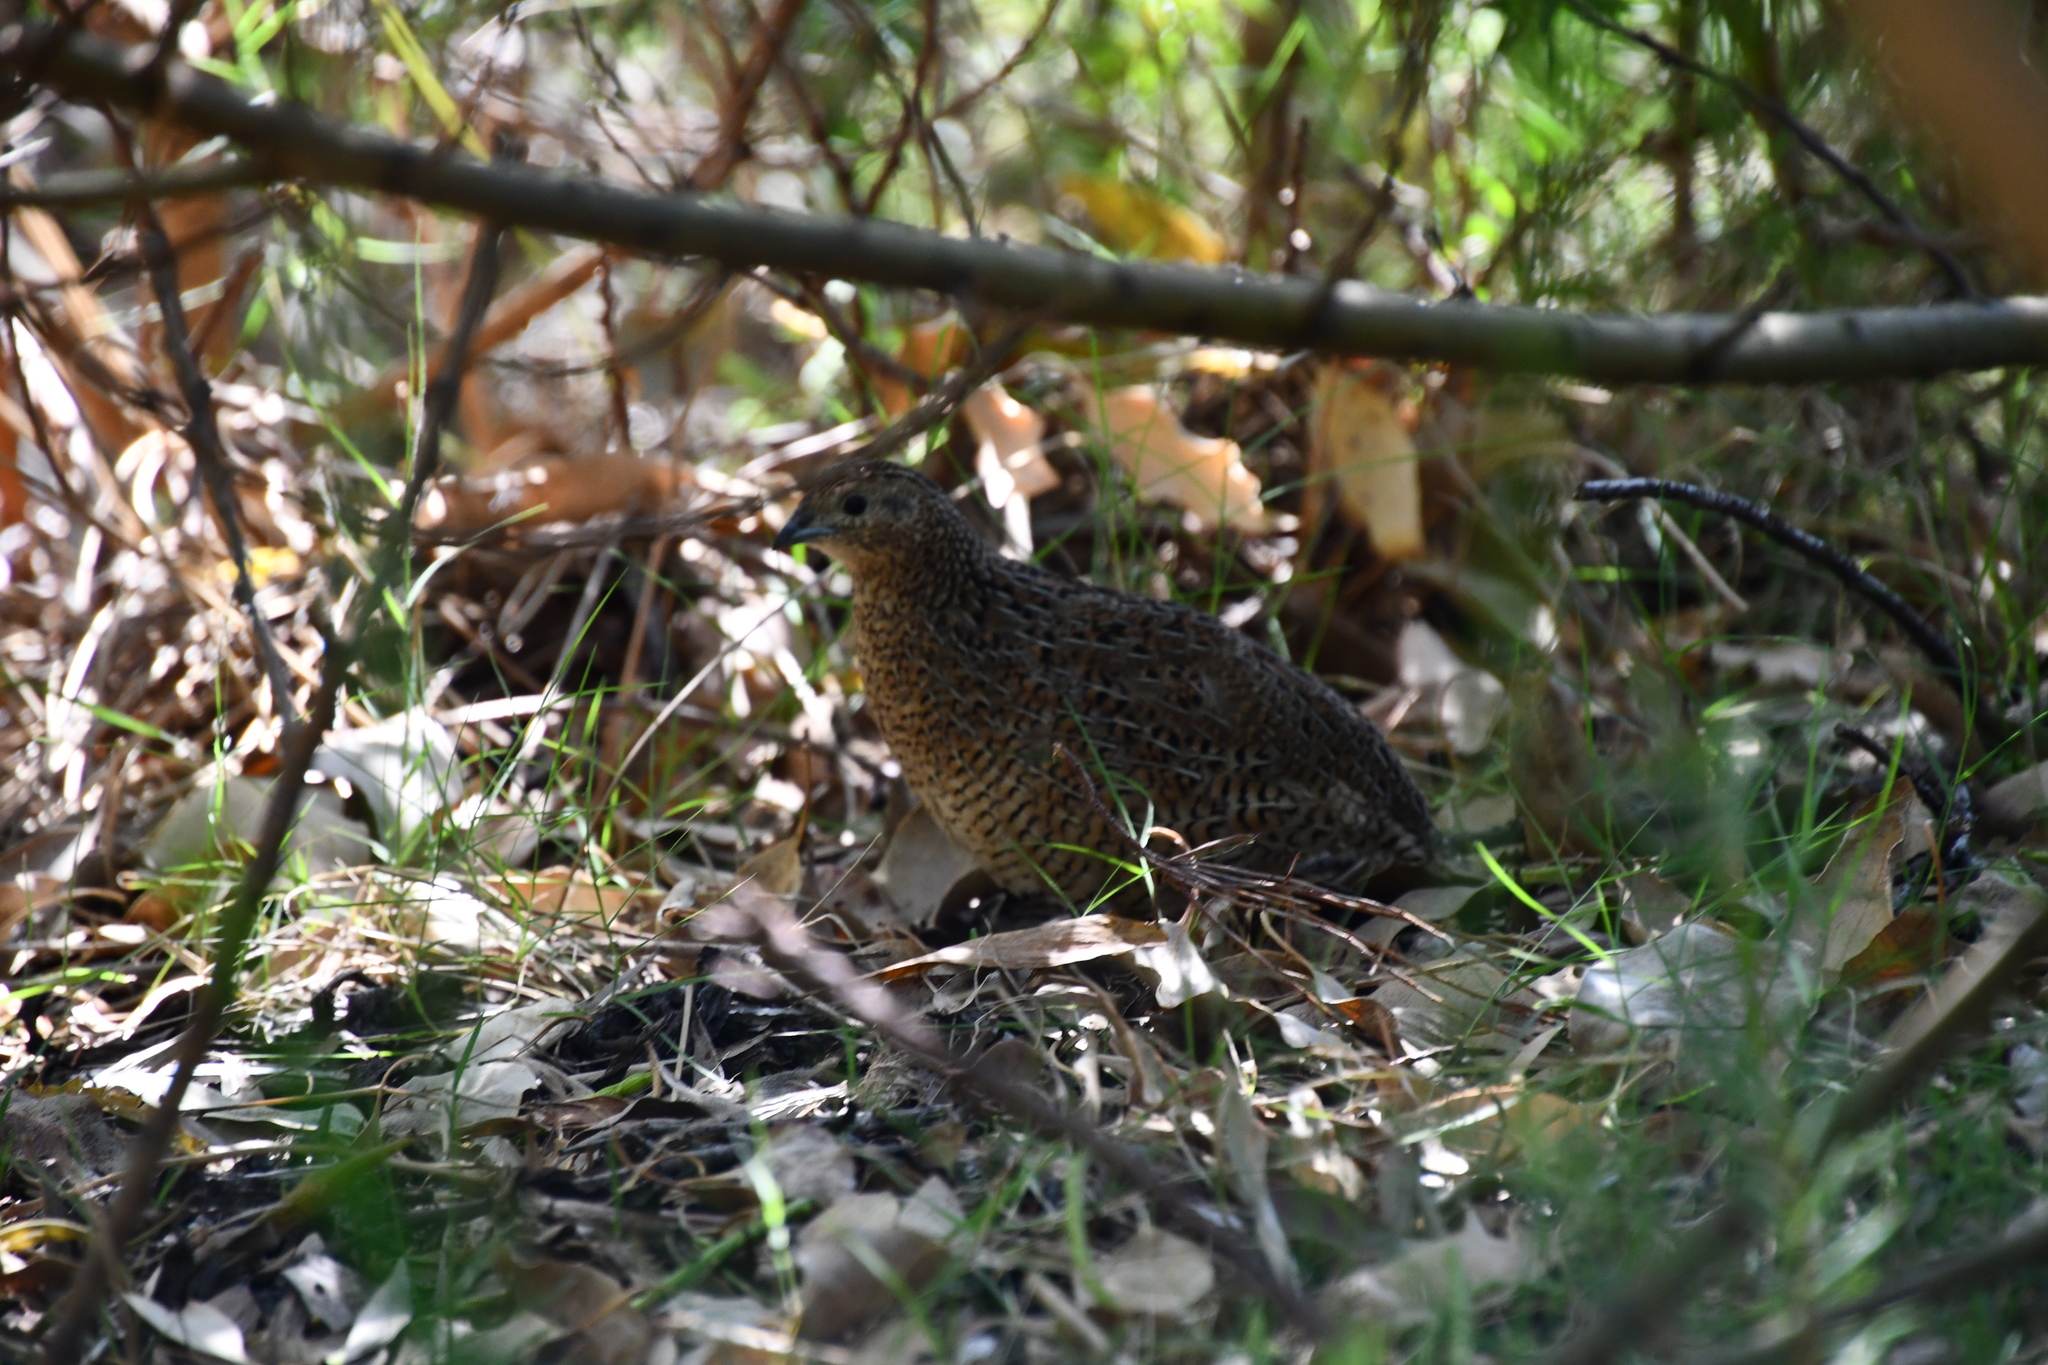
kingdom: Animalia
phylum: Chordata
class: Aves
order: Galliformes
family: Phasianidae
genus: Synoicus
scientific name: Synoicus ypsilophorus
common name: Brown quail
